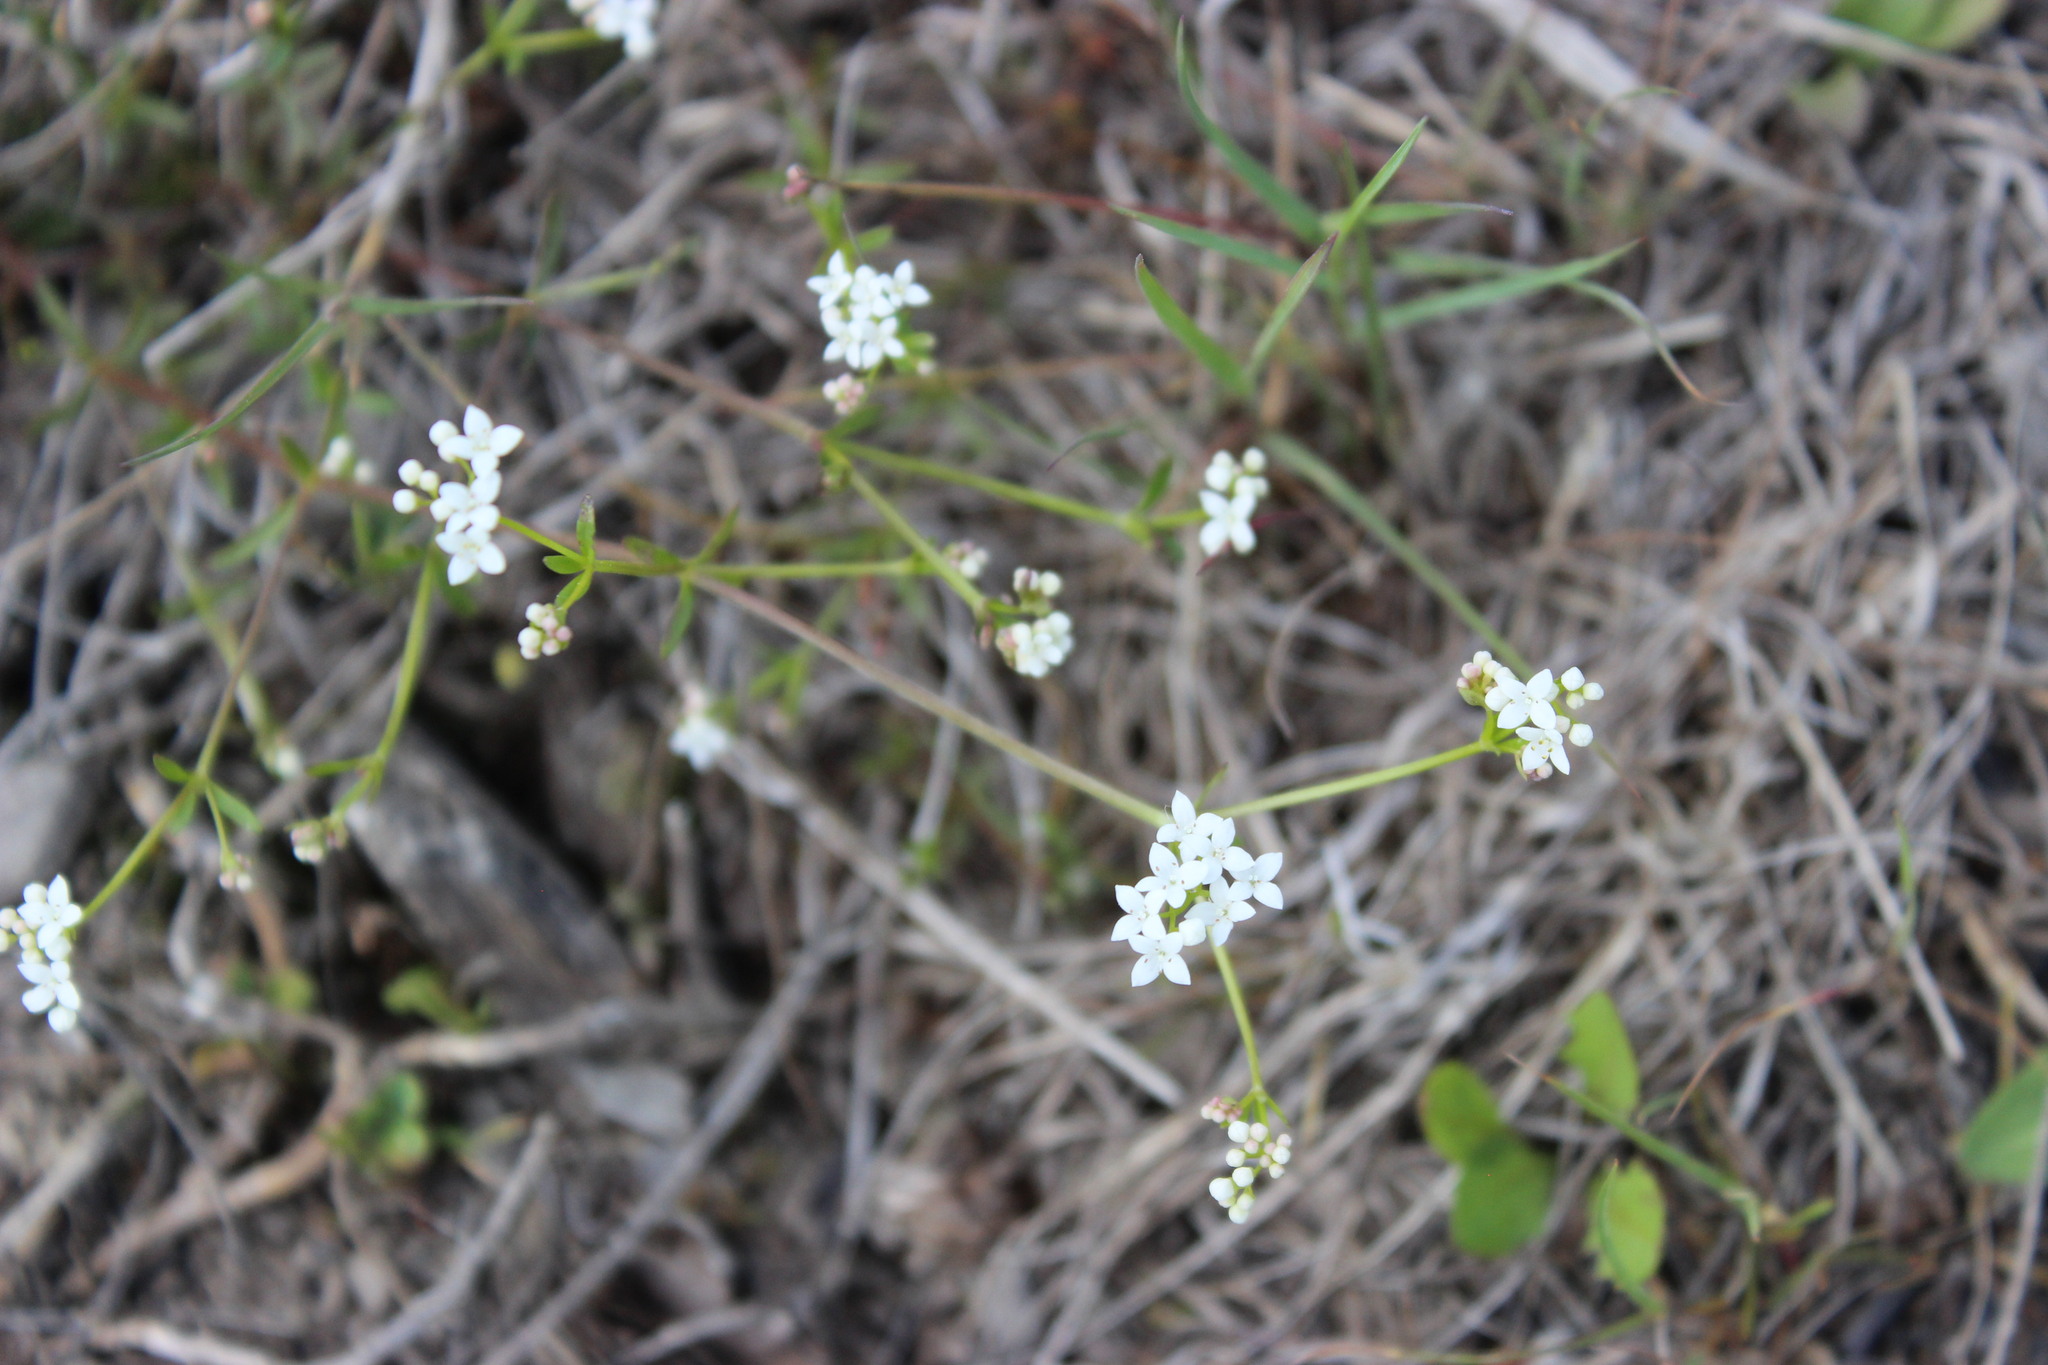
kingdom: Plantae
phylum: Tracheophyta
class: Magnoliopsida
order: Gentianales
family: Rubiaceae
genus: Galium
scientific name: Galium palustre
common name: Common marsh-bedstraw
